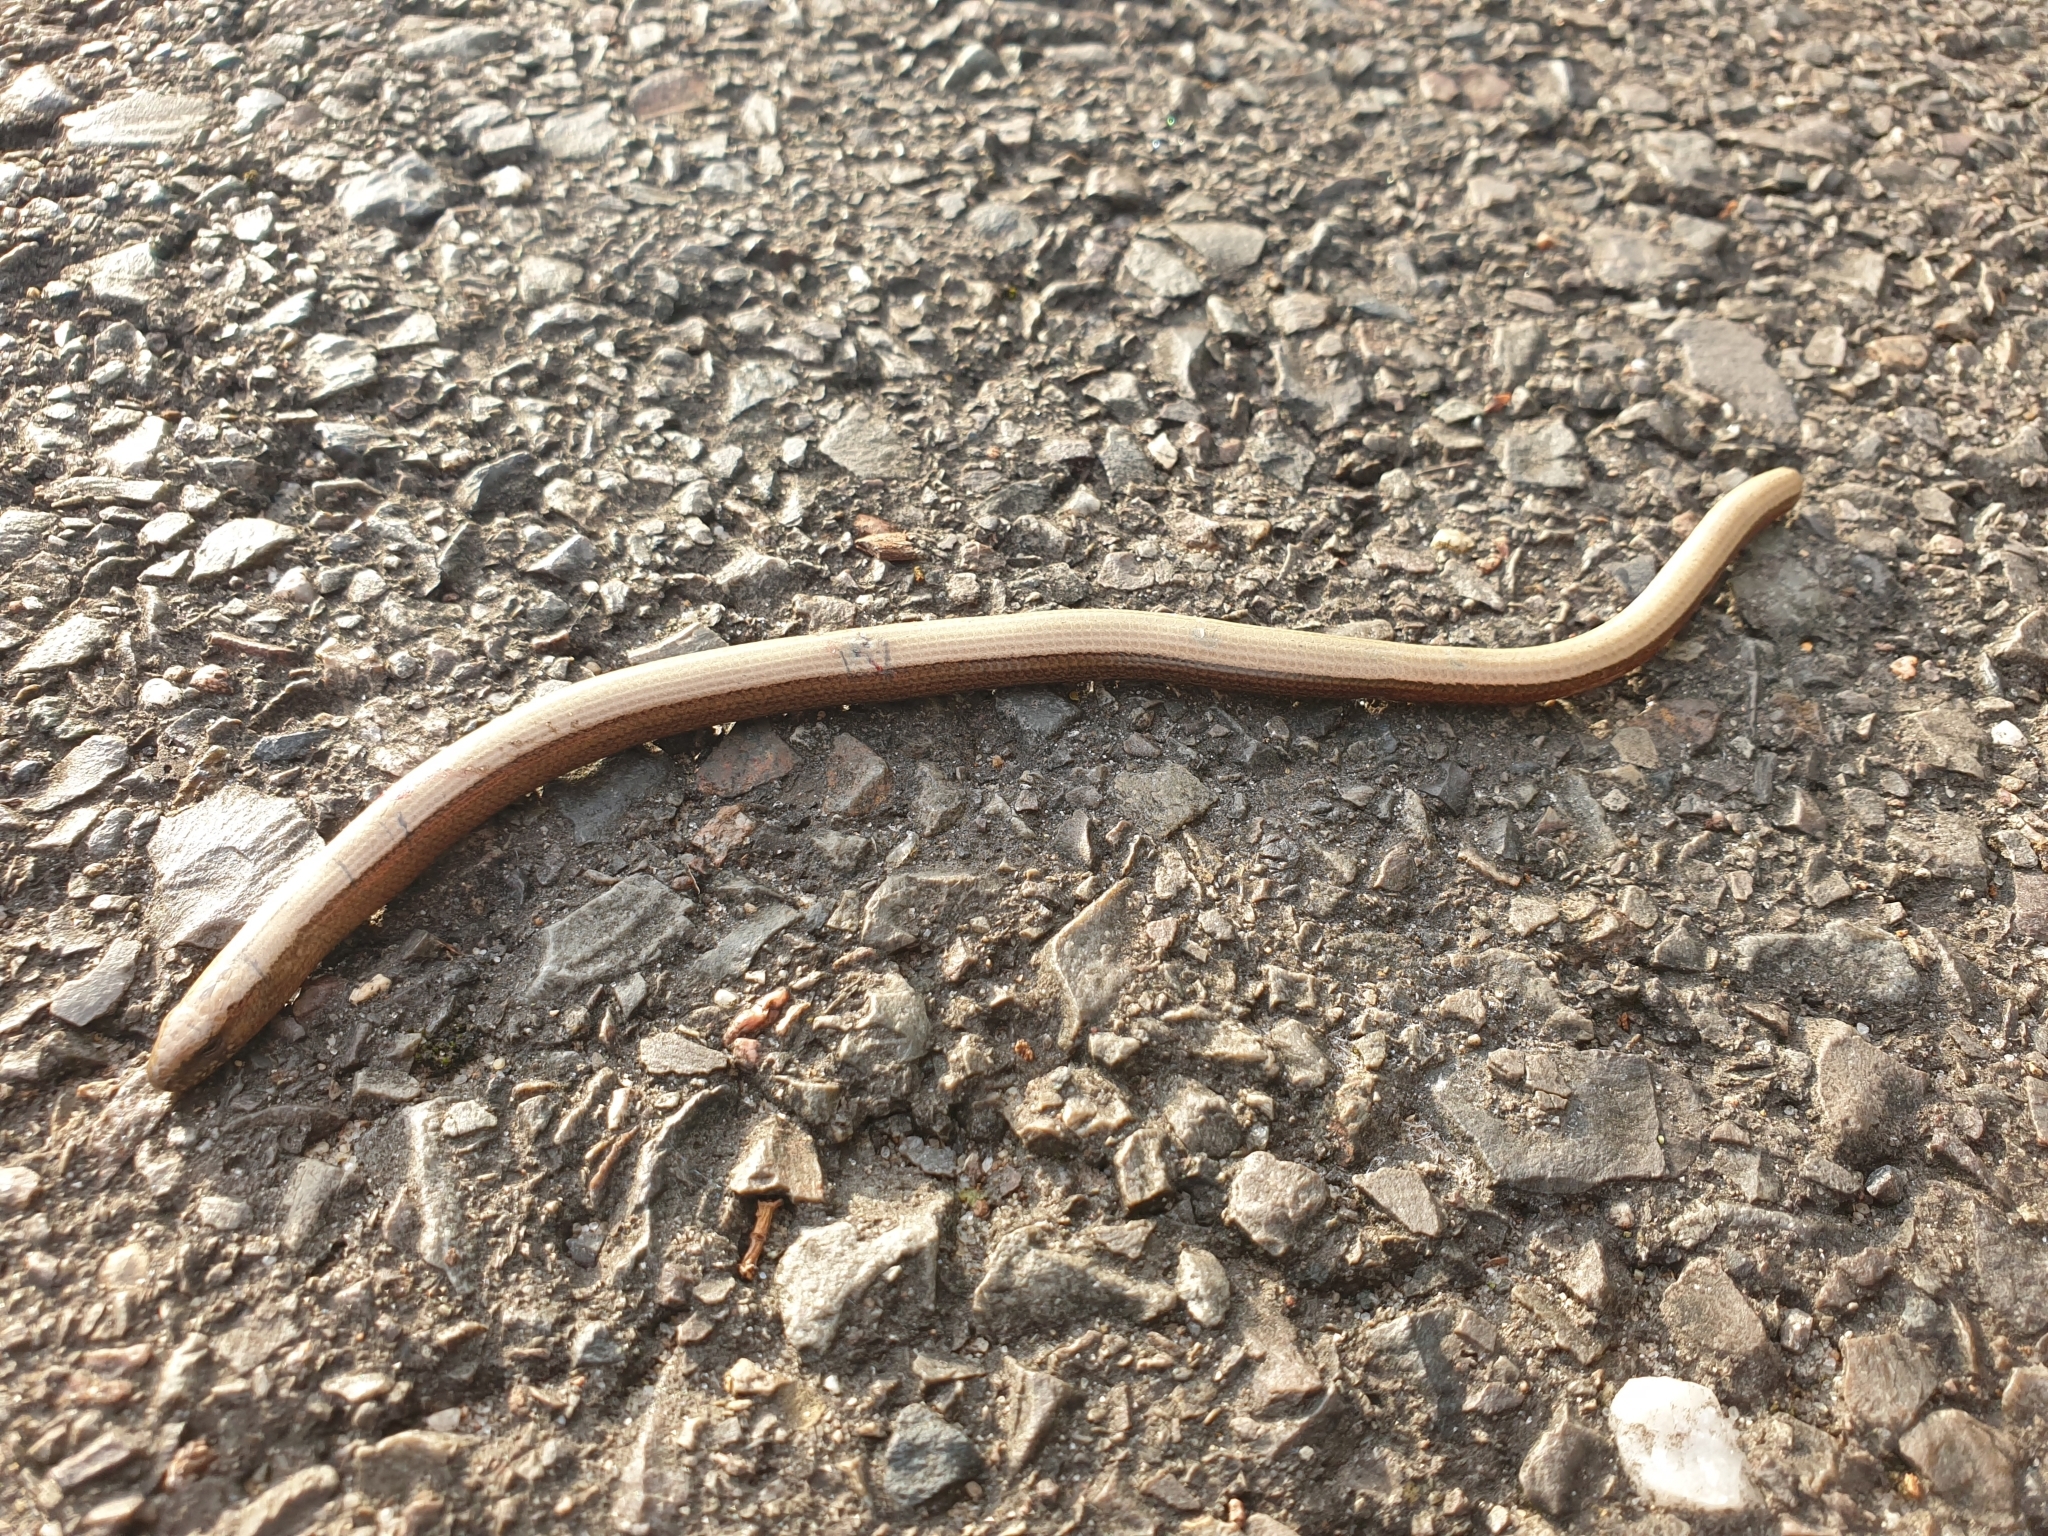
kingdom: Animalia
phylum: Chordata
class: Squamata
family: Anguidae
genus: Anguis
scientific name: Anguis fragilis
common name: Slow worm
